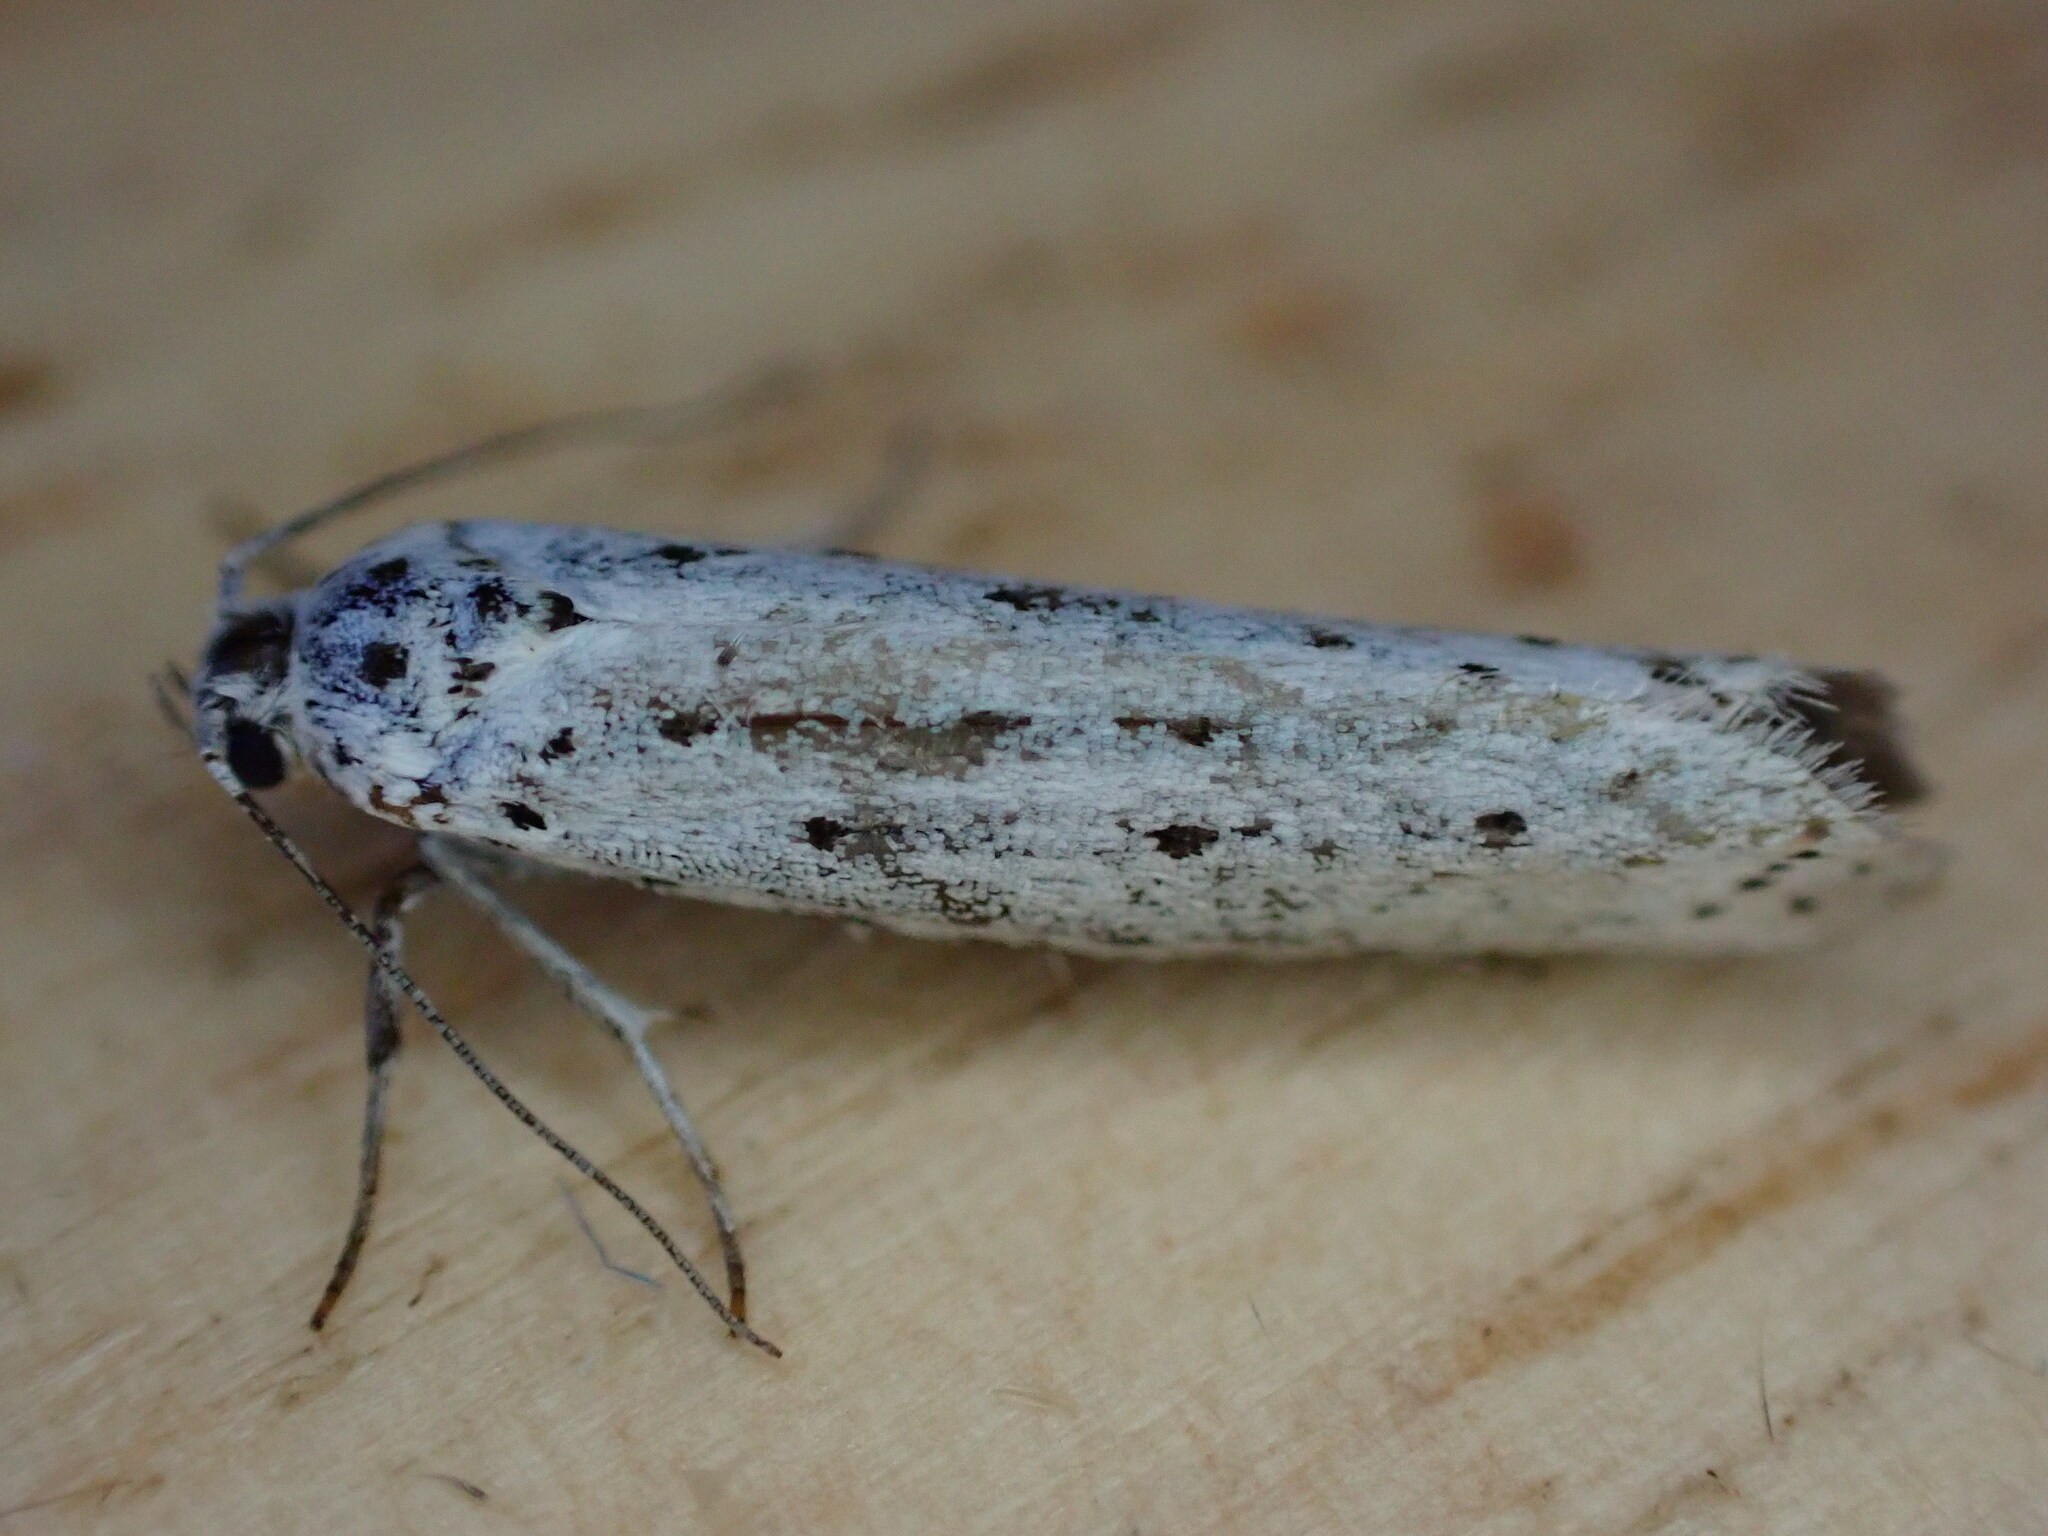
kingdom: Animalia
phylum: Arthropoda
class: Insecta
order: Lepidoptera
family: Yponomeutidae
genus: Yponomeuta
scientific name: Yponomeuta
